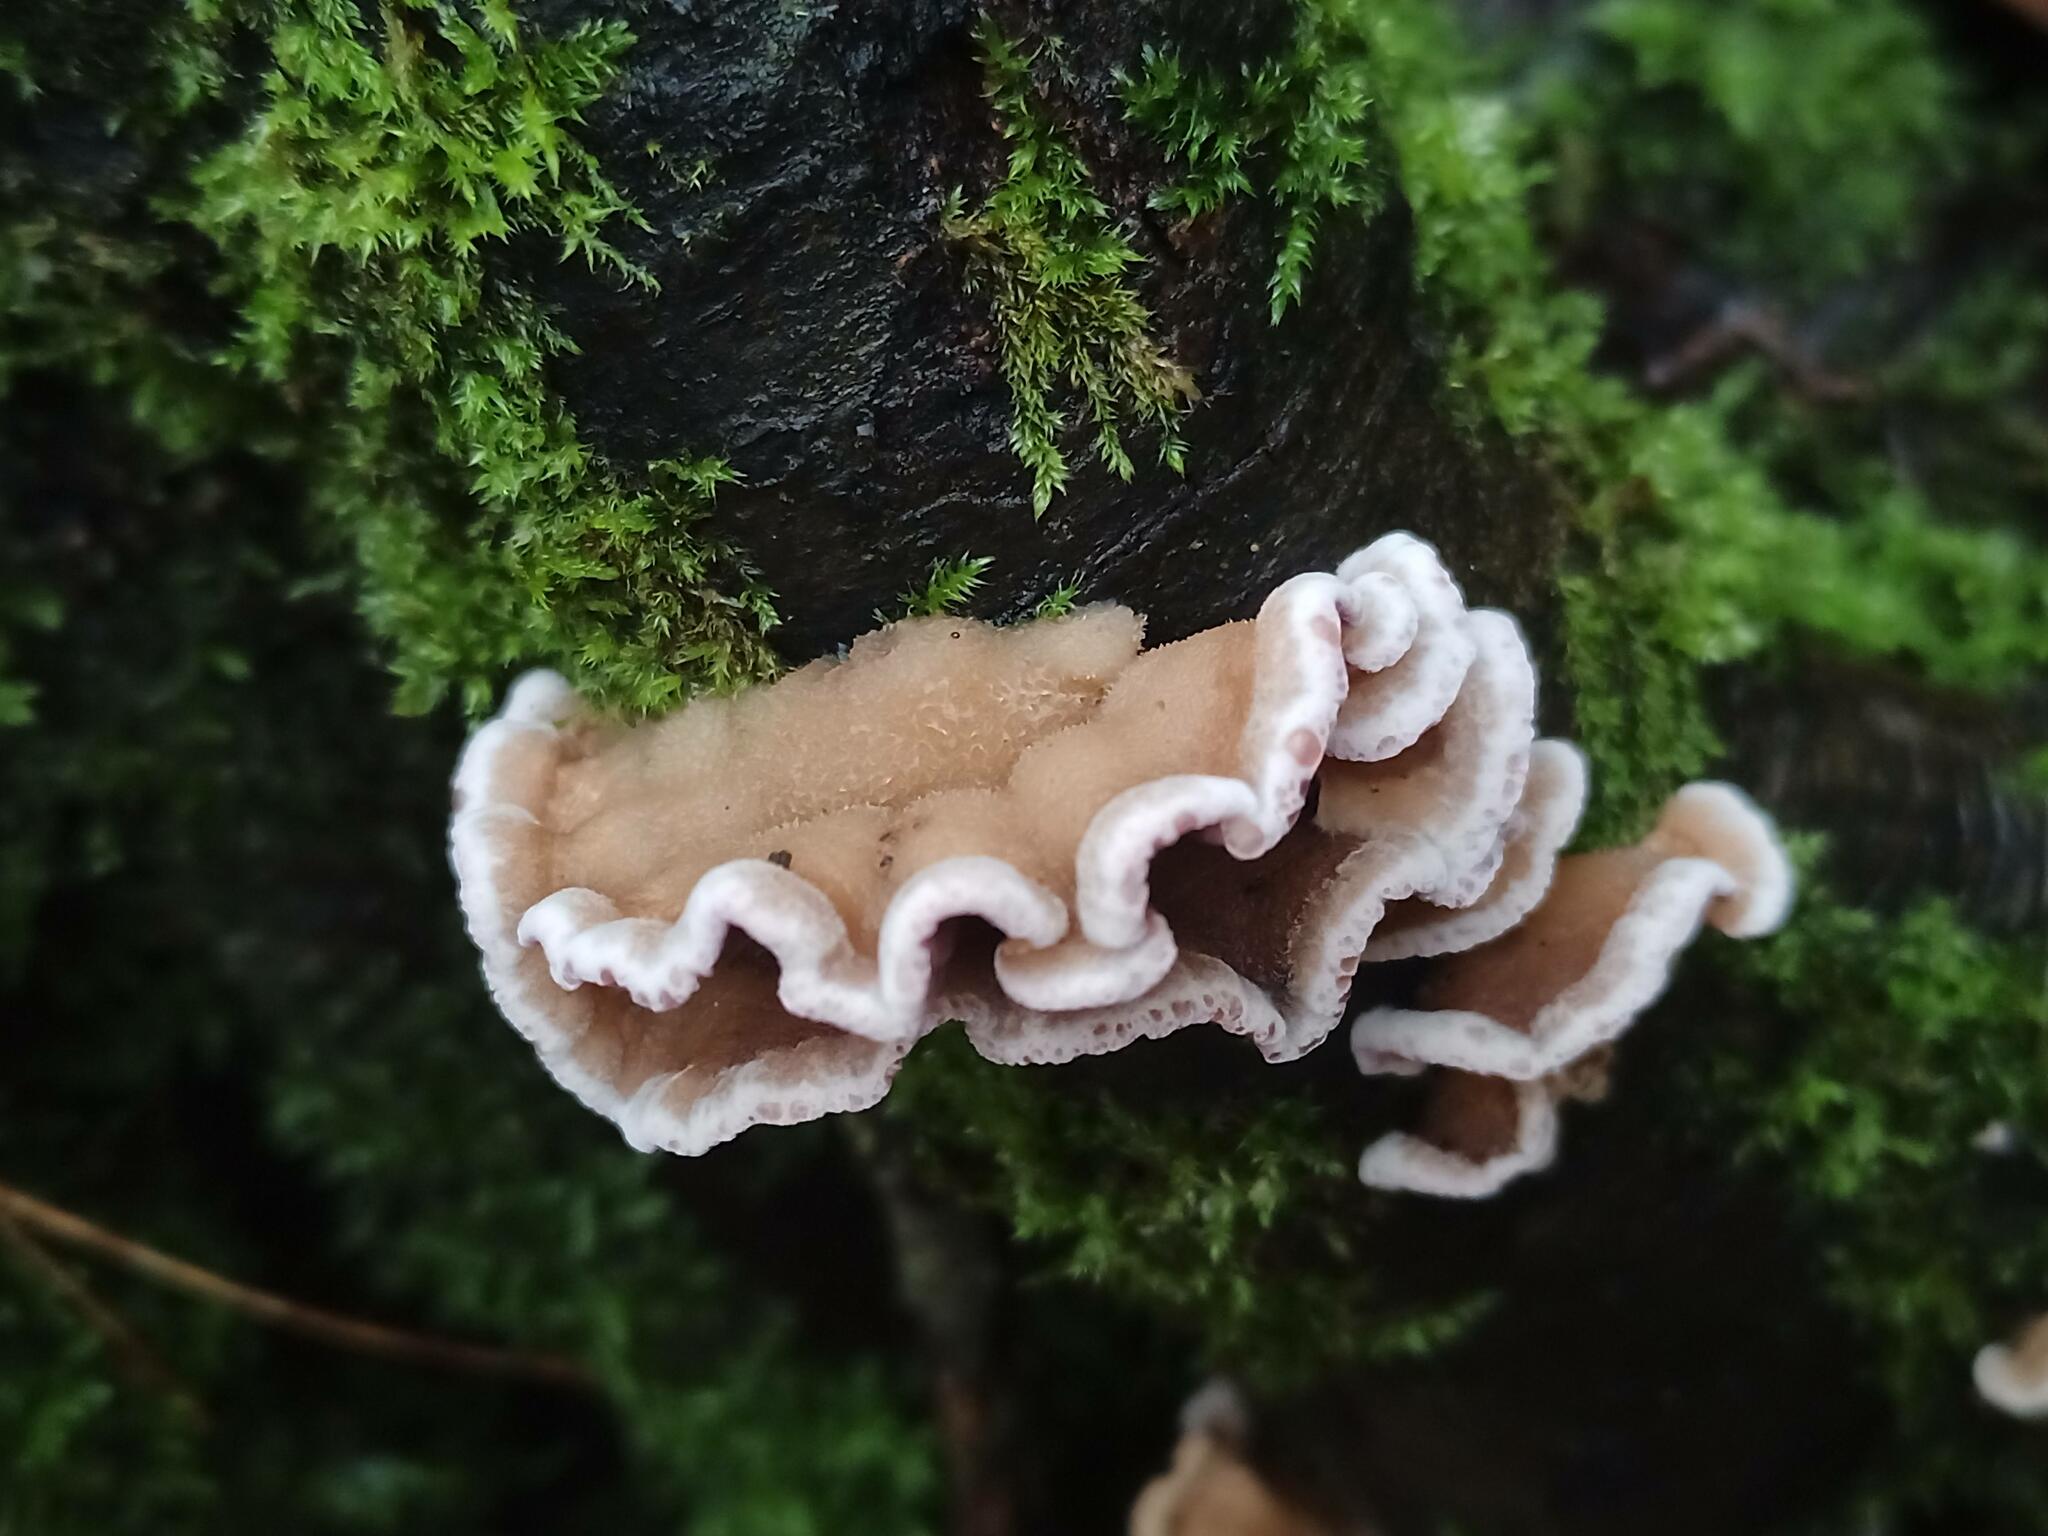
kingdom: Fungi
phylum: Basidiomycota
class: Agaricomycetes
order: Agaricales
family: Cyphellaceae
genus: Chondrostereum
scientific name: Chondrostereum purpureum
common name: Silver leaf disease
